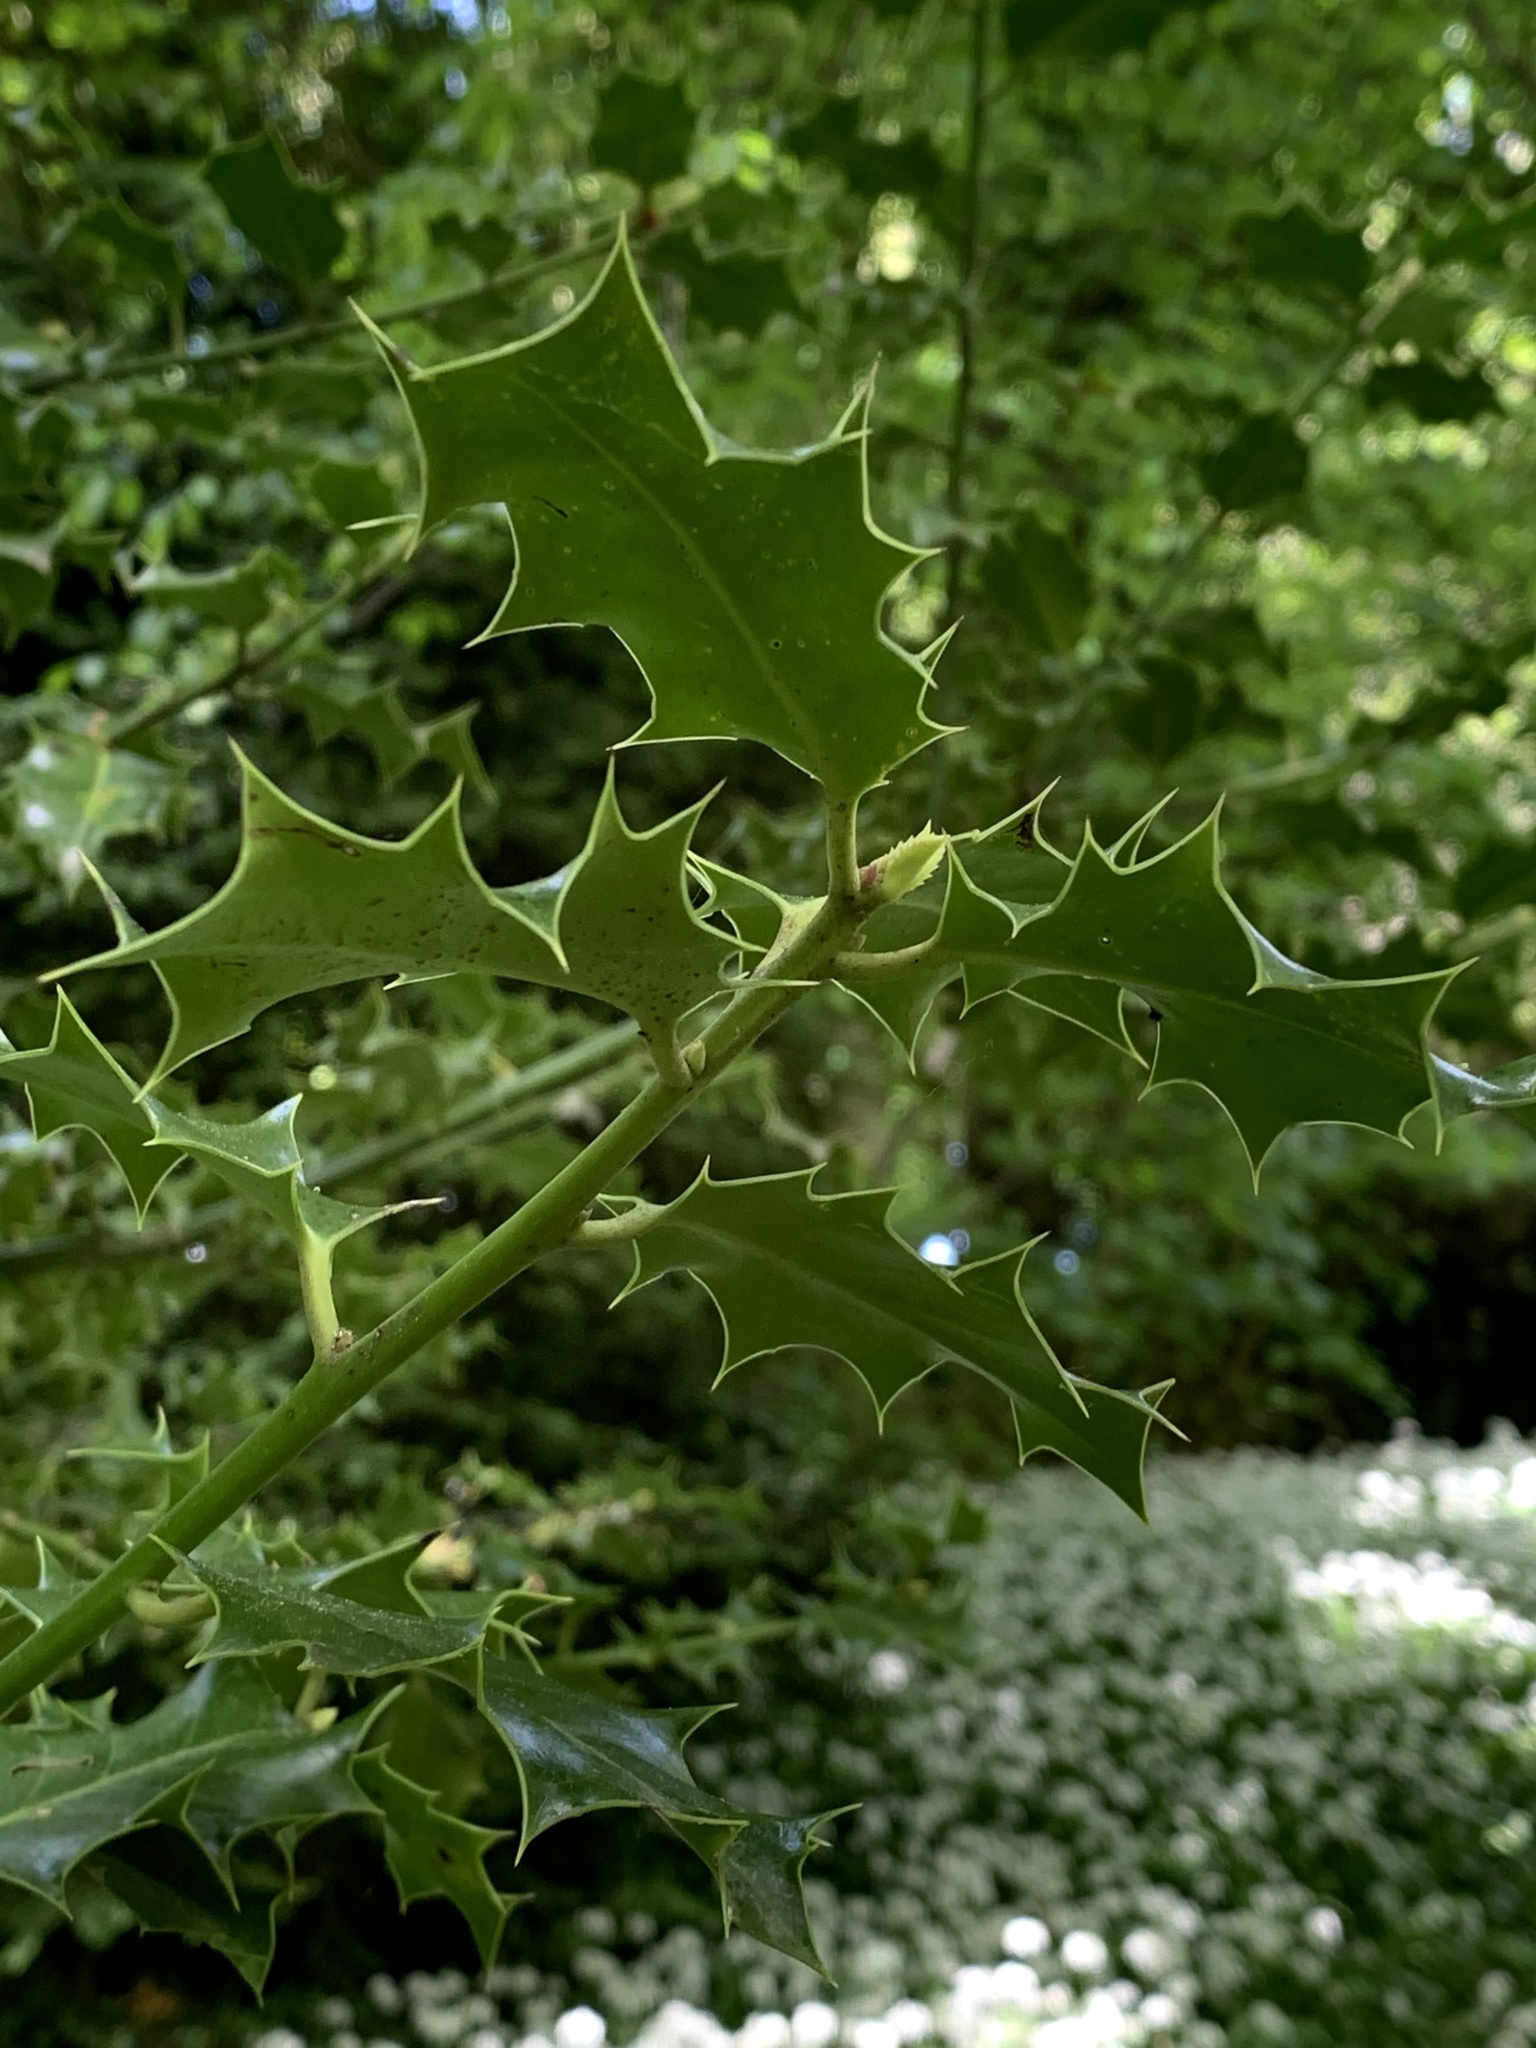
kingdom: Plantae
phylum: Tracheophyta
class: Magnoliopsida
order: Aquifoliales
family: Aquifoliaceae
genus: Ilex
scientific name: Ilex aquifolium
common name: English holly
